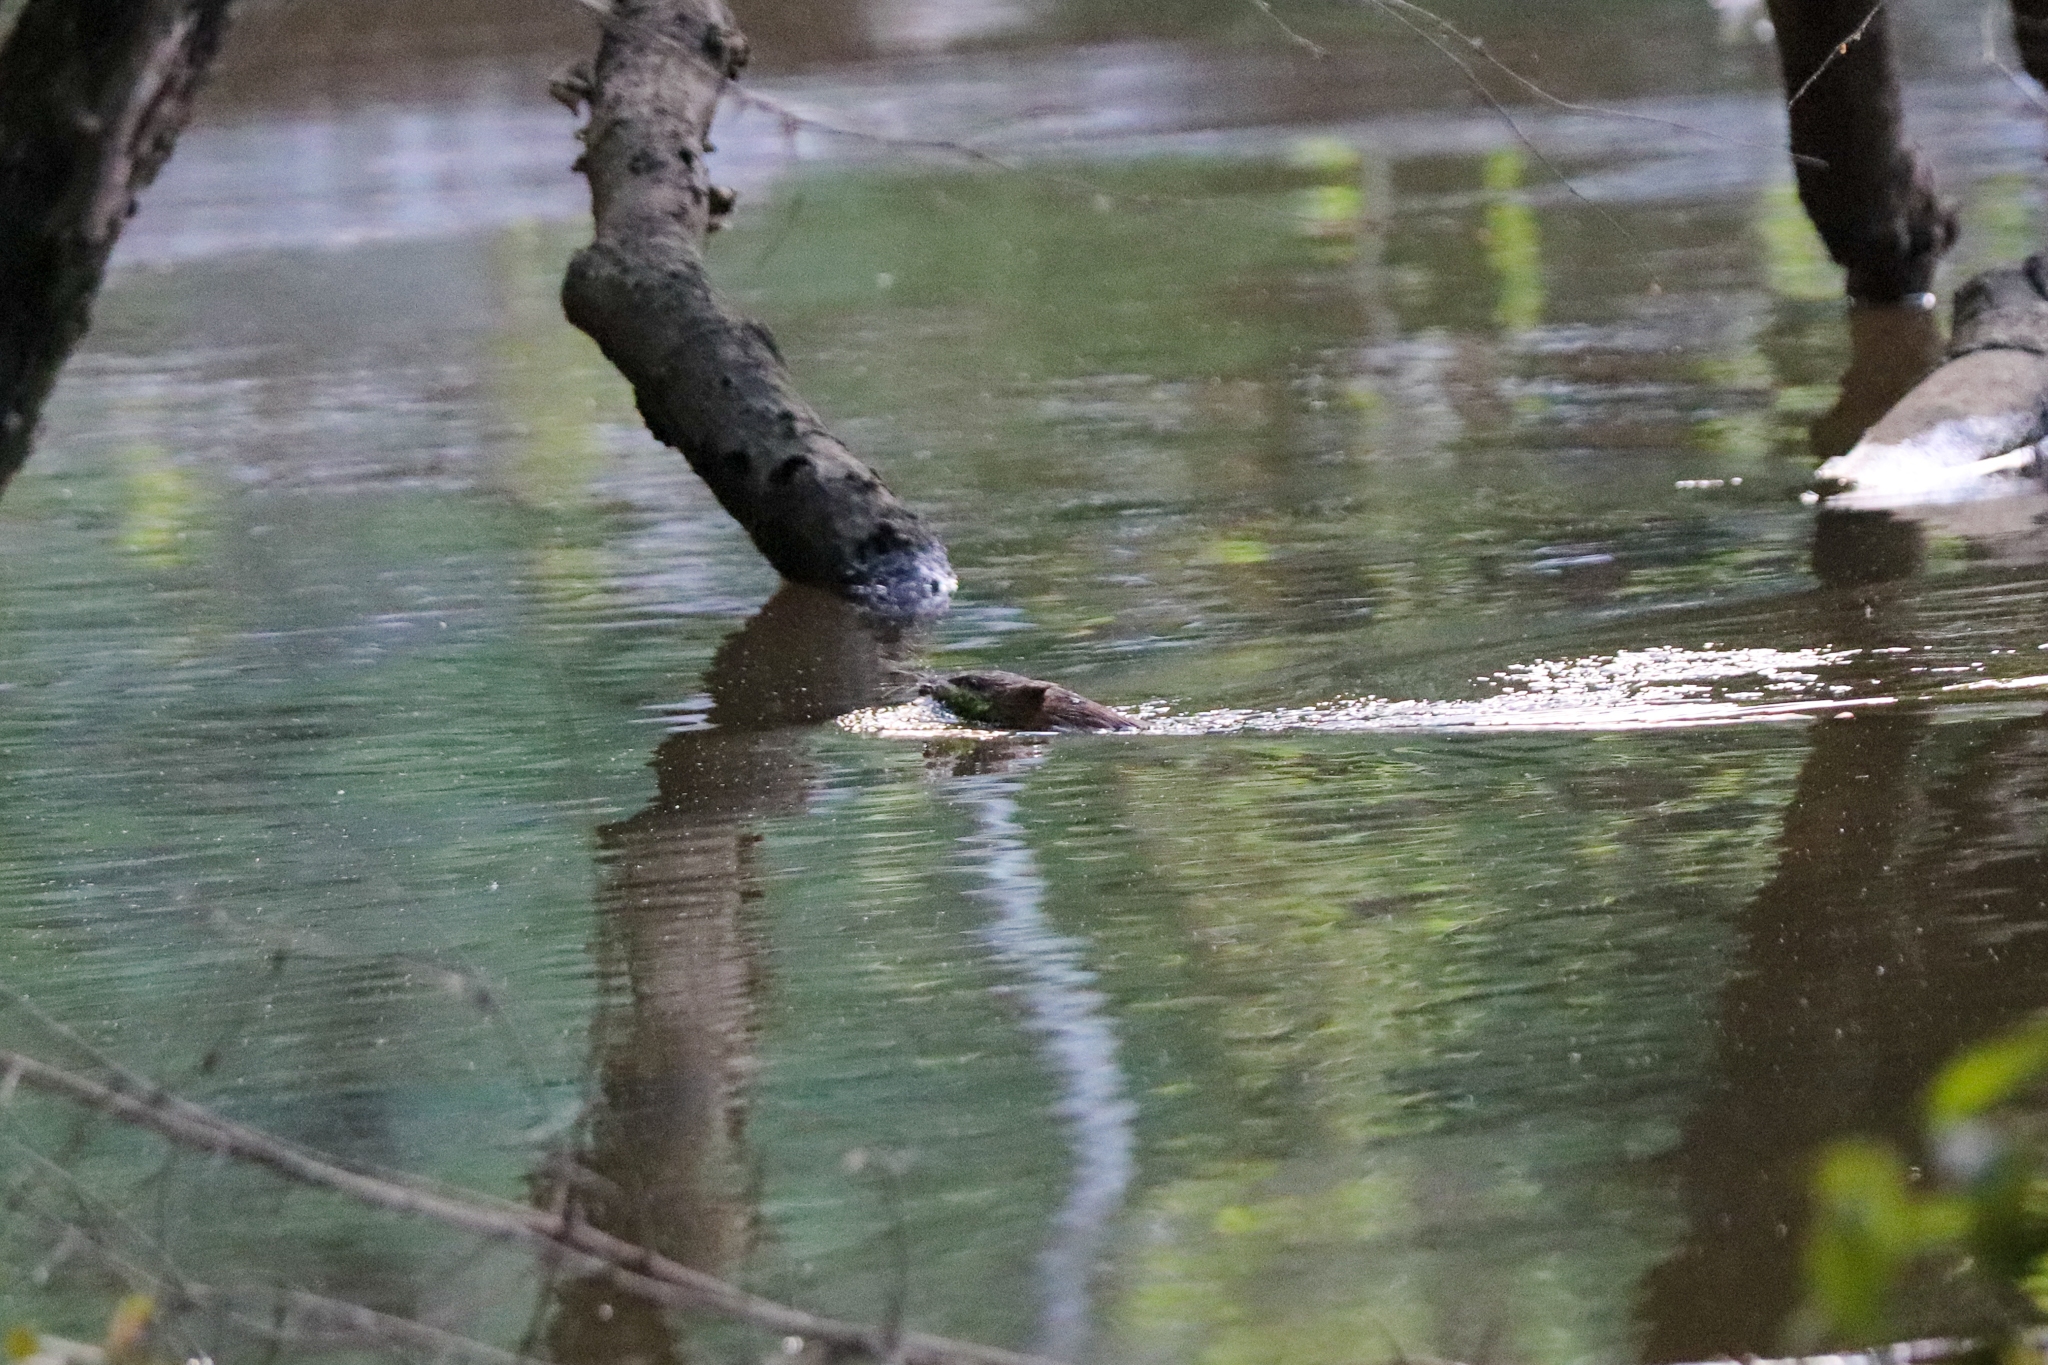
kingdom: Animalia
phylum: Chordata
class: Mammalia
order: Rodentia
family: Cricetidae
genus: Ondatra
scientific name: Ondatra zibethicus
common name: Muskrat
